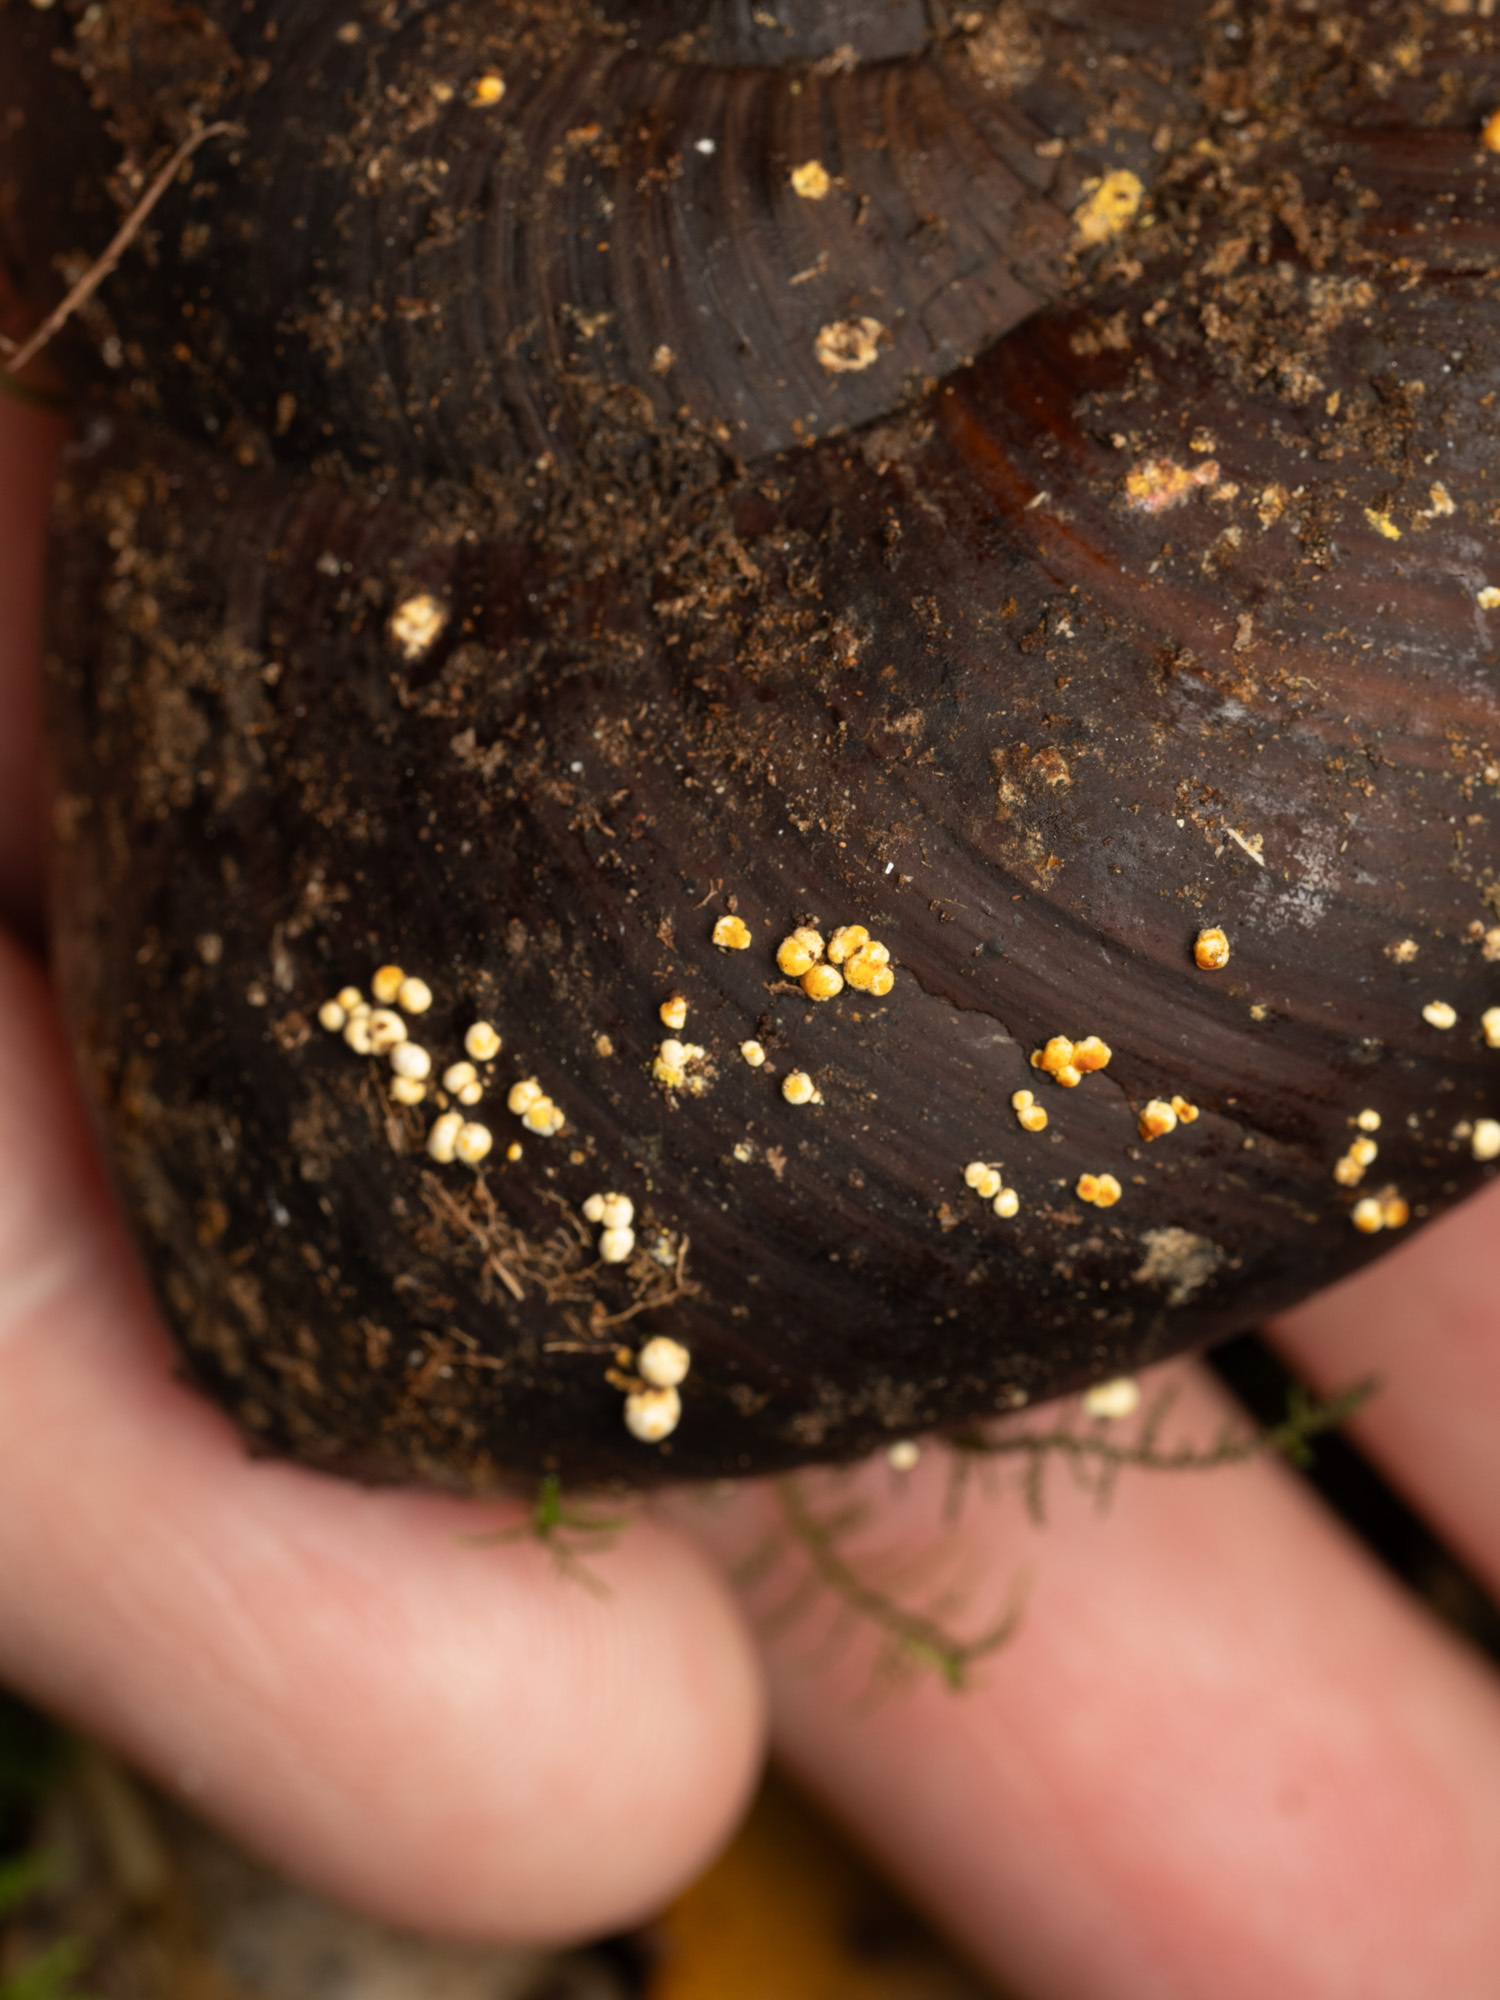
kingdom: Fungi
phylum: Ascomycota
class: Eurotiomycetes
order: Onygenales
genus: Harorepupu
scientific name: Harorepupu aotearoa
